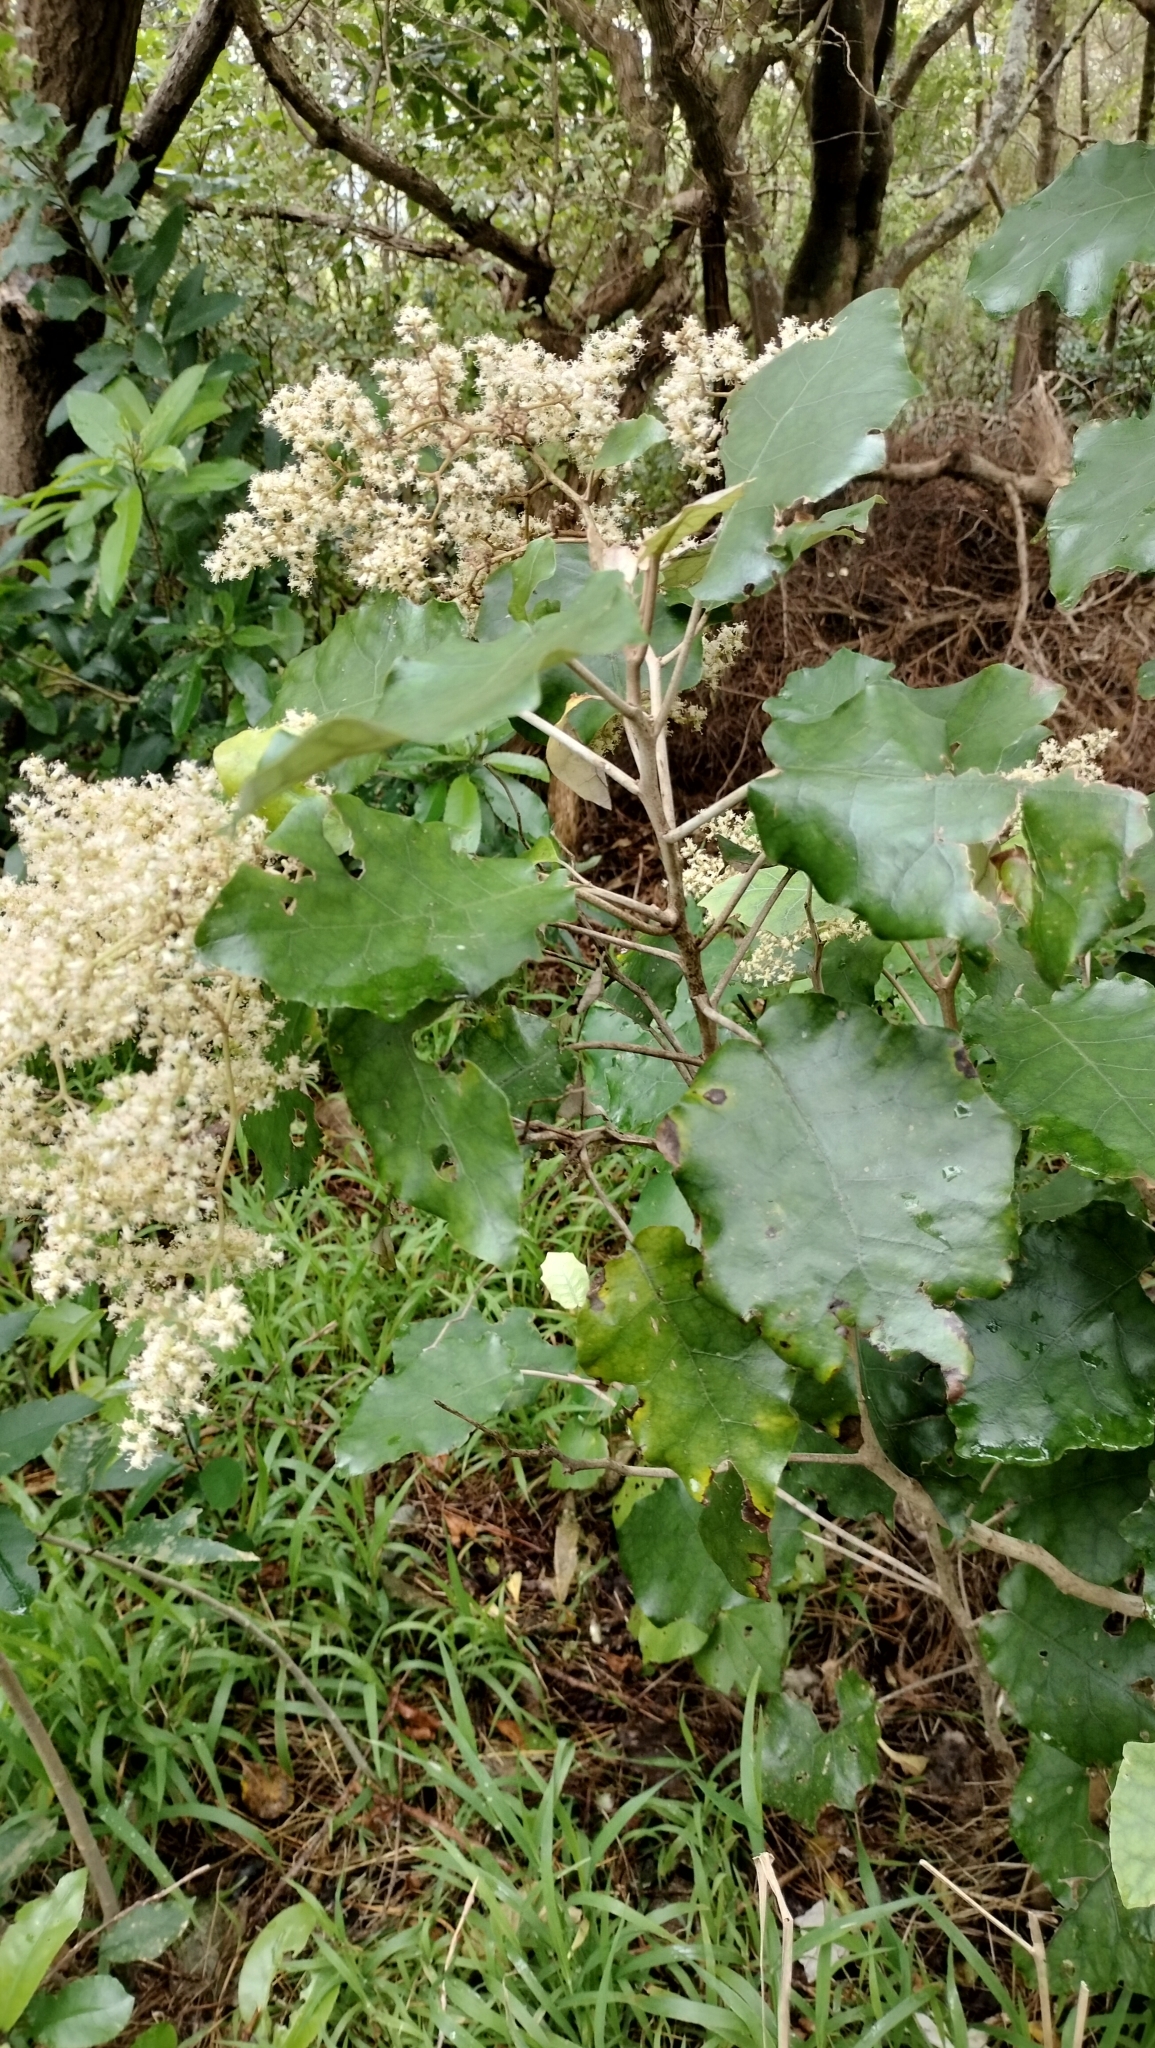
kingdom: Plantae
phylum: Tracheophyta
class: Magnoliopsida
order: Asterales
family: Asteraceae
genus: Brachyglottis
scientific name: Brachyglottis repanda
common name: Hedge ragwort
